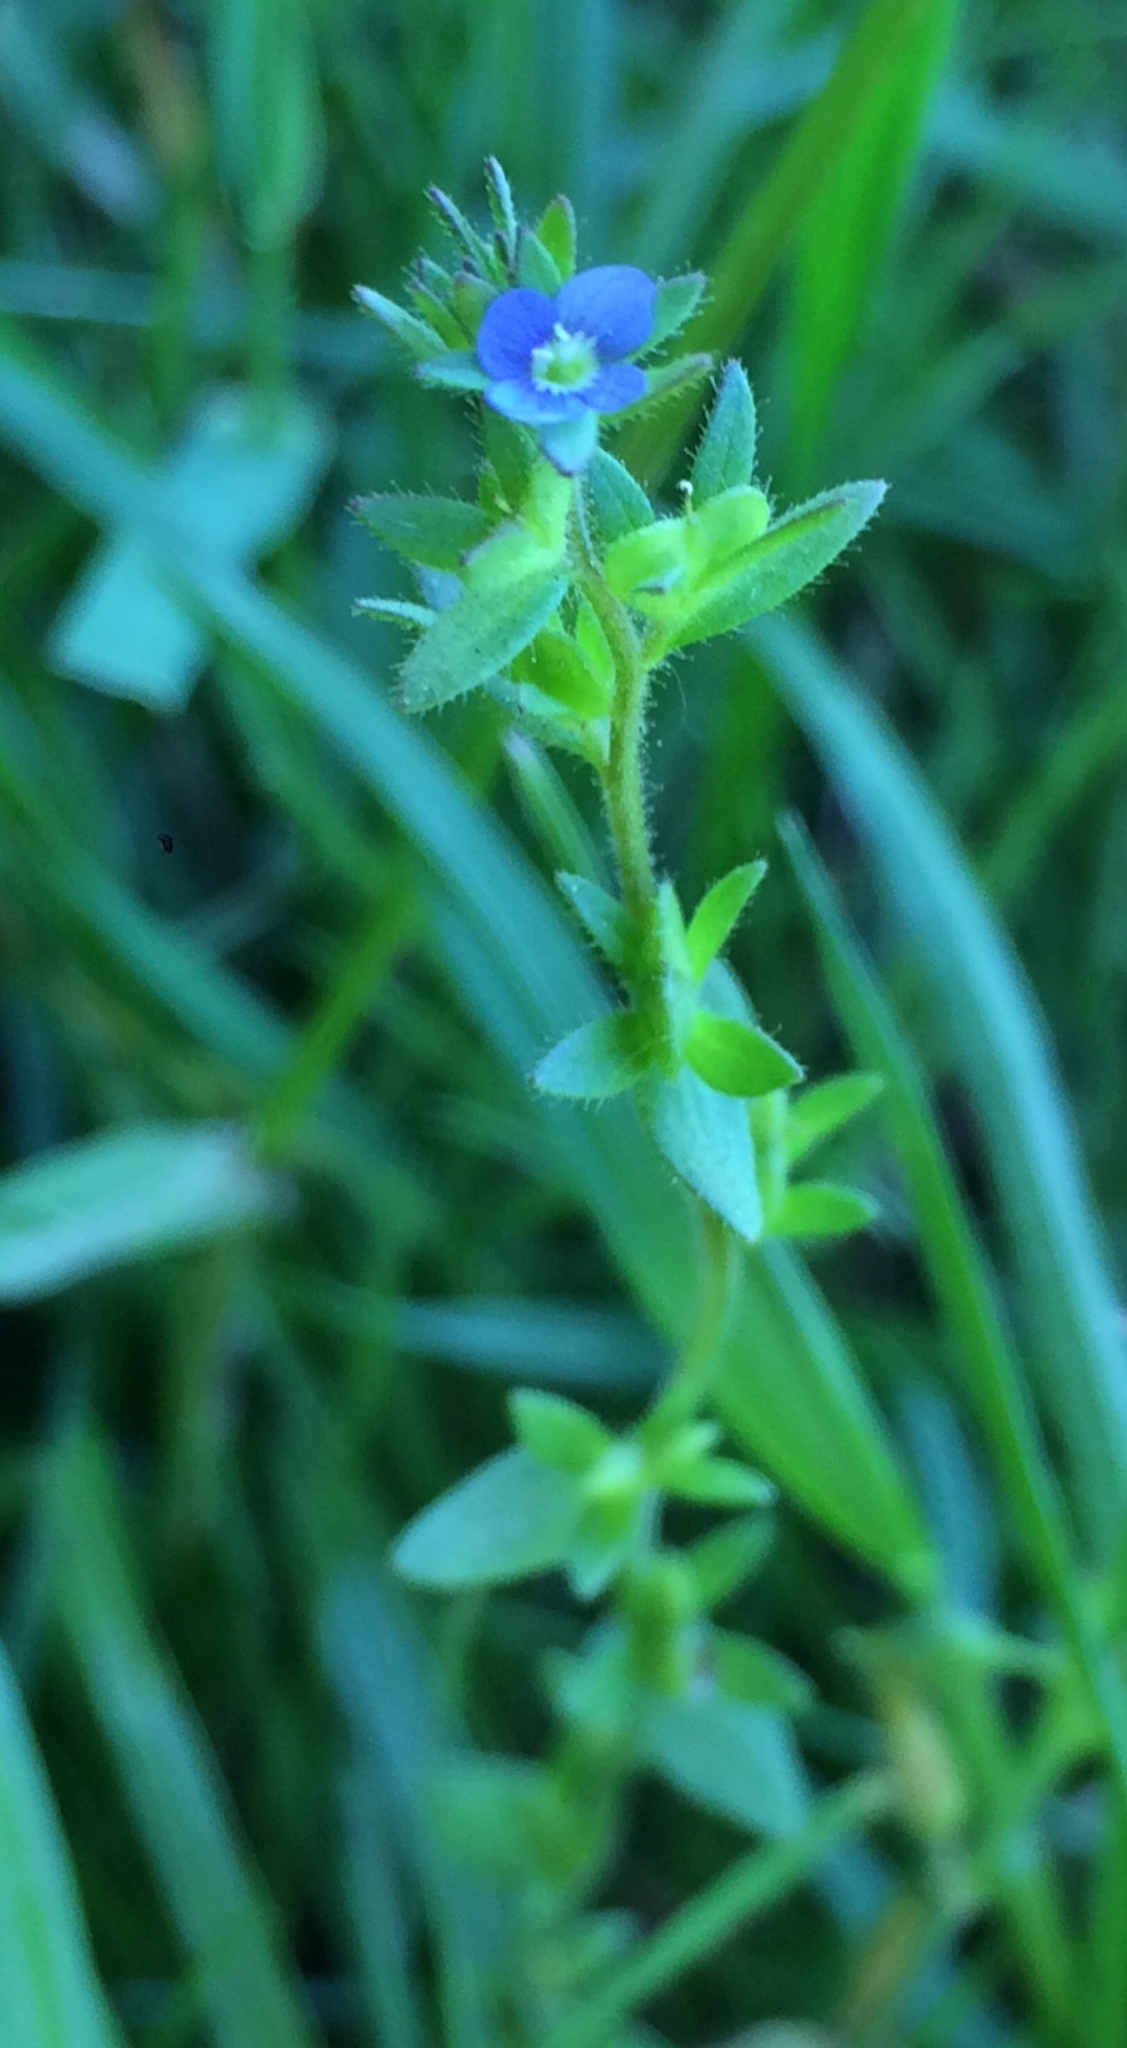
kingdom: Plantae
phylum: Tracheophyta
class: Magnoliopsida
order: Lamiales
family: Plantaginaceae
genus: Veronica
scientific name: Veronica arvensis
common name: Corn speedwell
